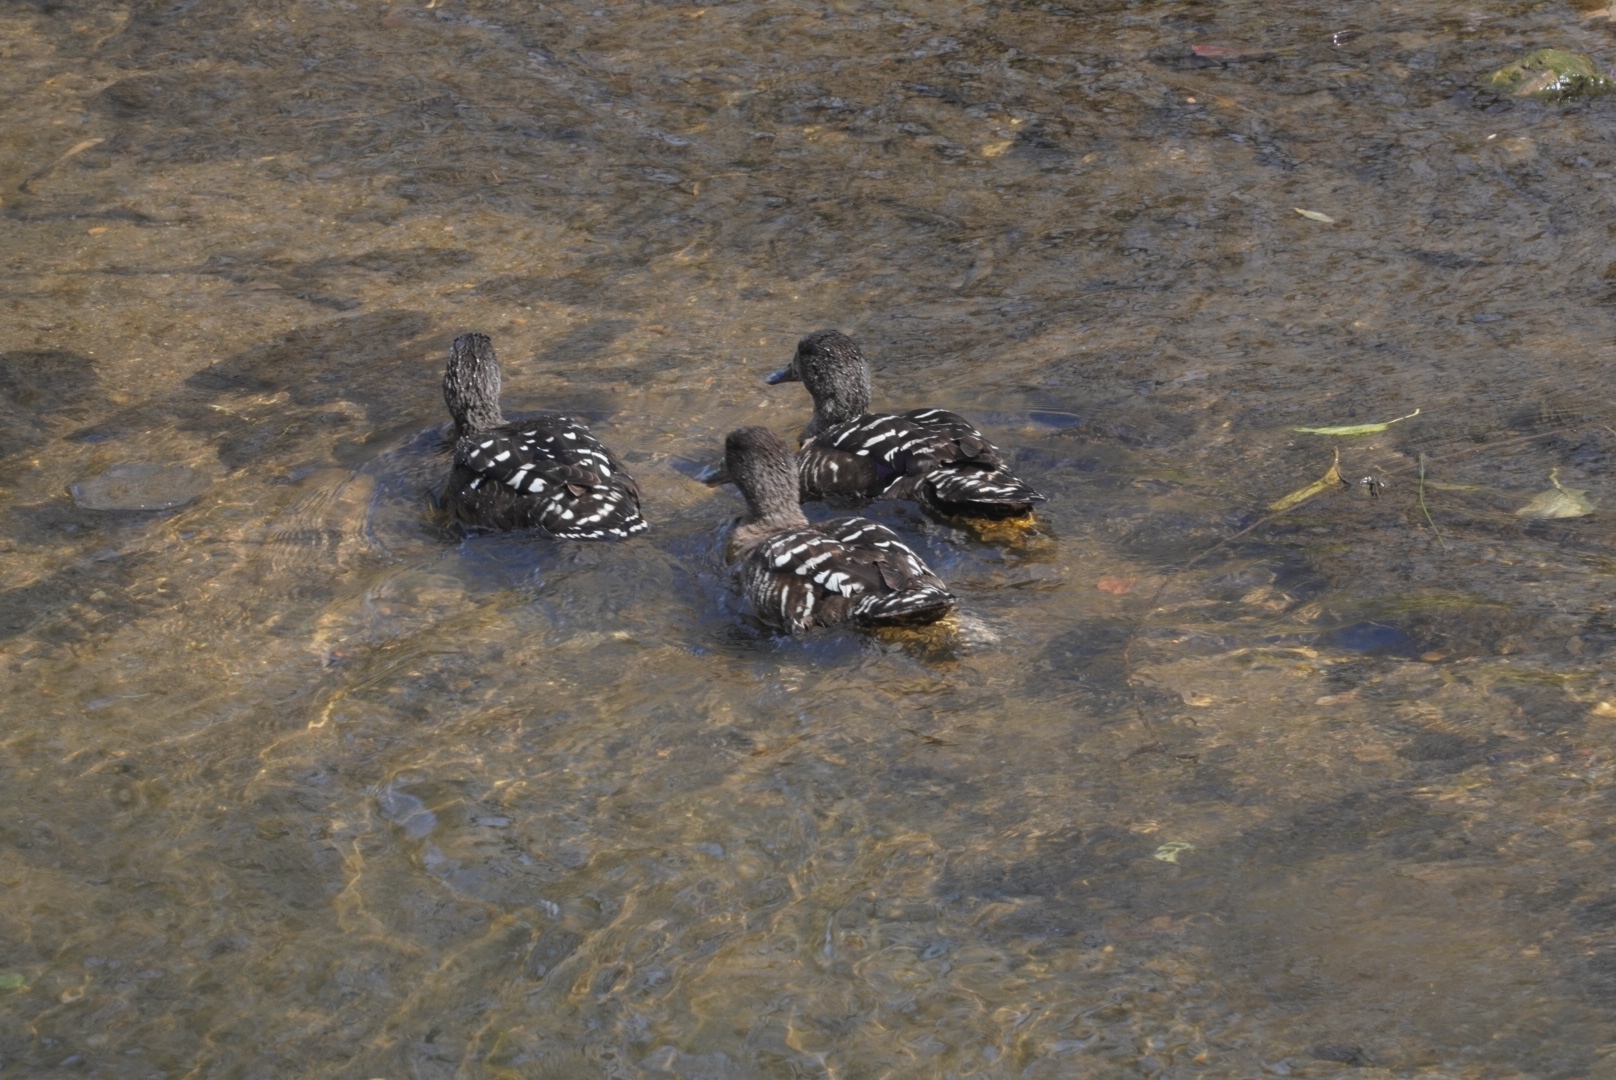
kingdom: Animalia
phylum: Chordata
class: Aves
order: Anseriformes
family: Anatidae
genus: Anas
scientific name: Anas sparsa
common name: African black duck
